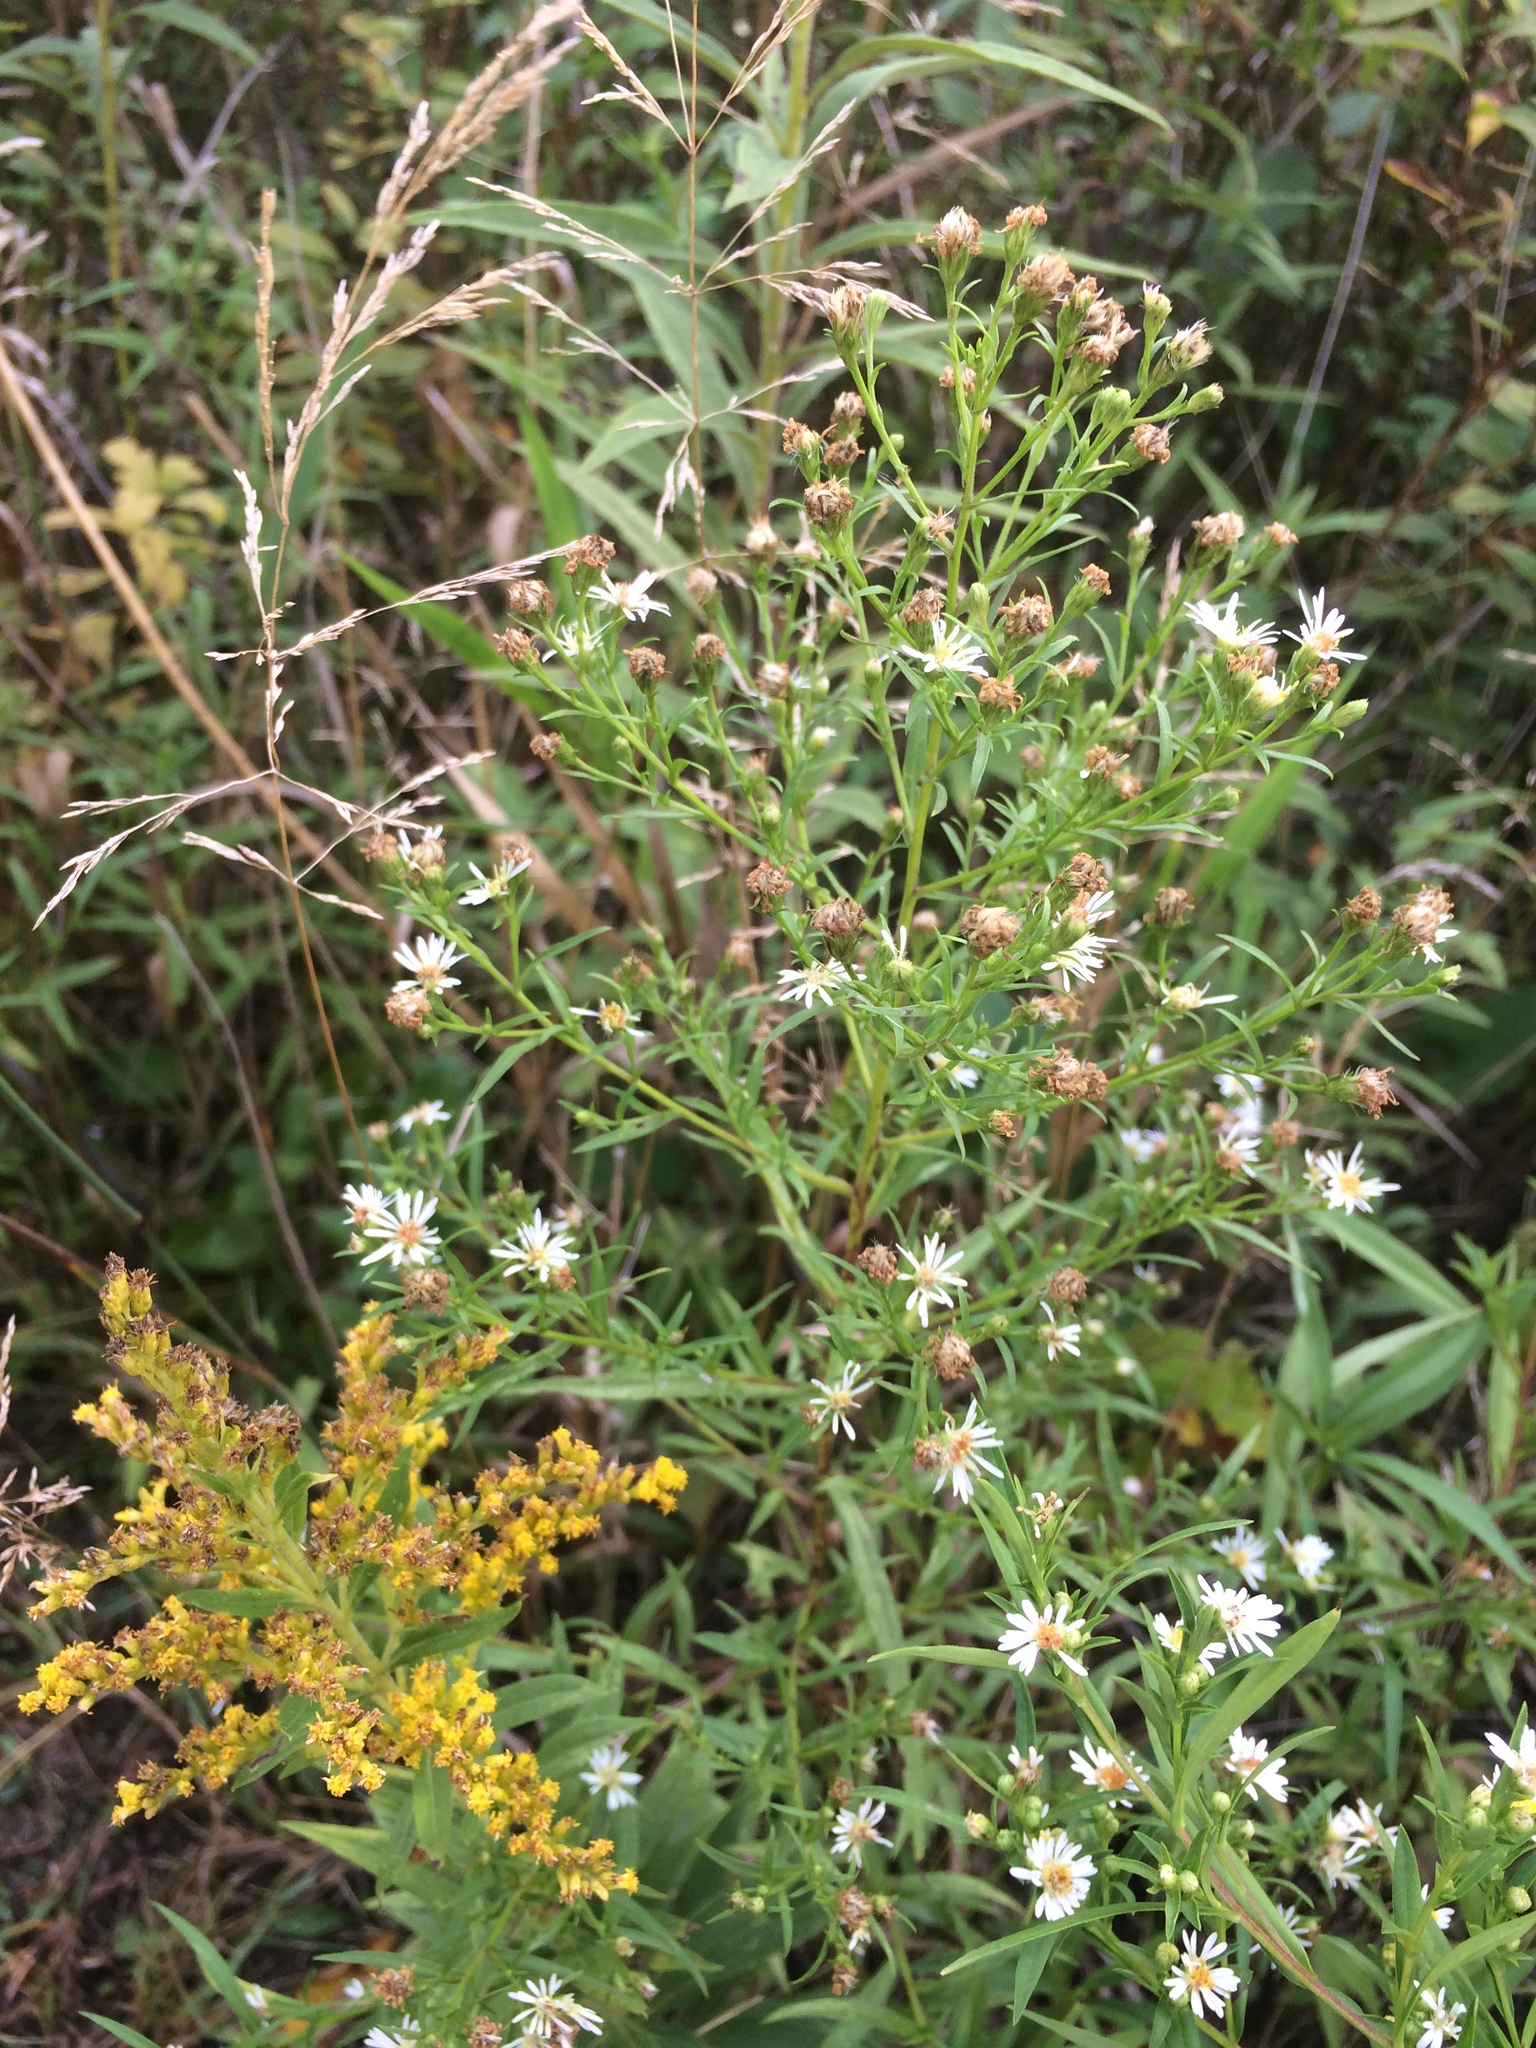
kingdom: Plantae
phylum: Tracheophyta
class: Magnoliopsida
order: Asterales
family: Asteraceae
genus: Symphyotrichum
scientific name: Symphyotrichum lanceolatum
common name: Panicled aster
